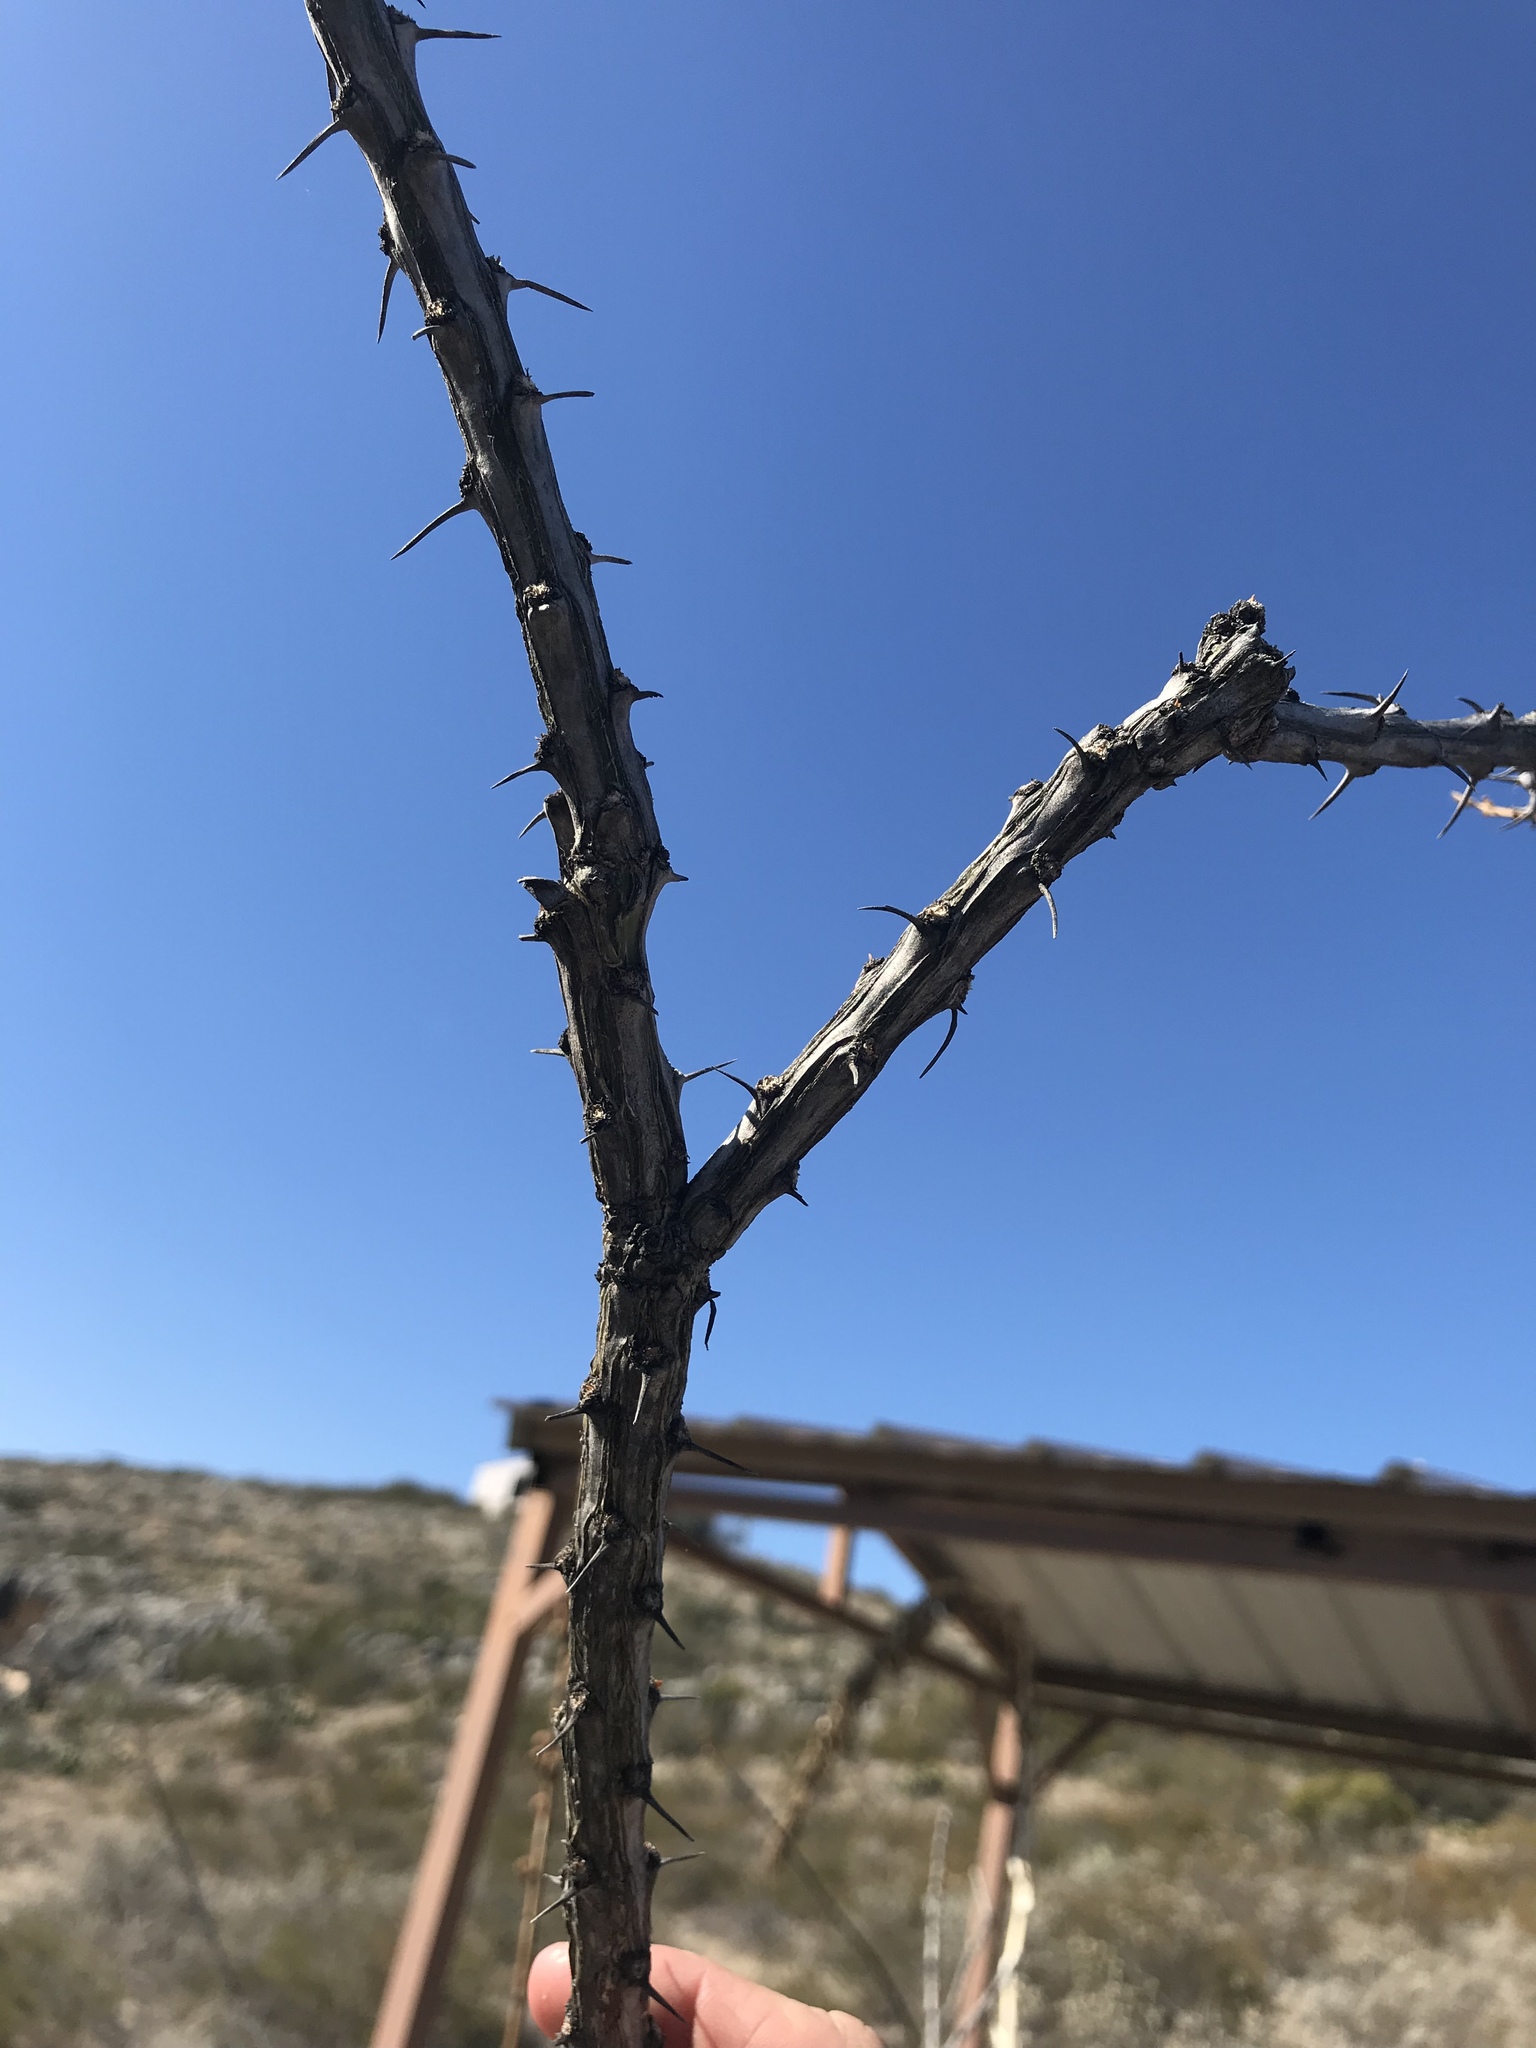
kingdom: Plantae
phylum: Tracheophyta
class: Magnoliopsida
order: Ericales
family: Fouquieriaceae
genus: Fouquieria
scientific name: Fouquieria splendens
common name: Vine-cactus
